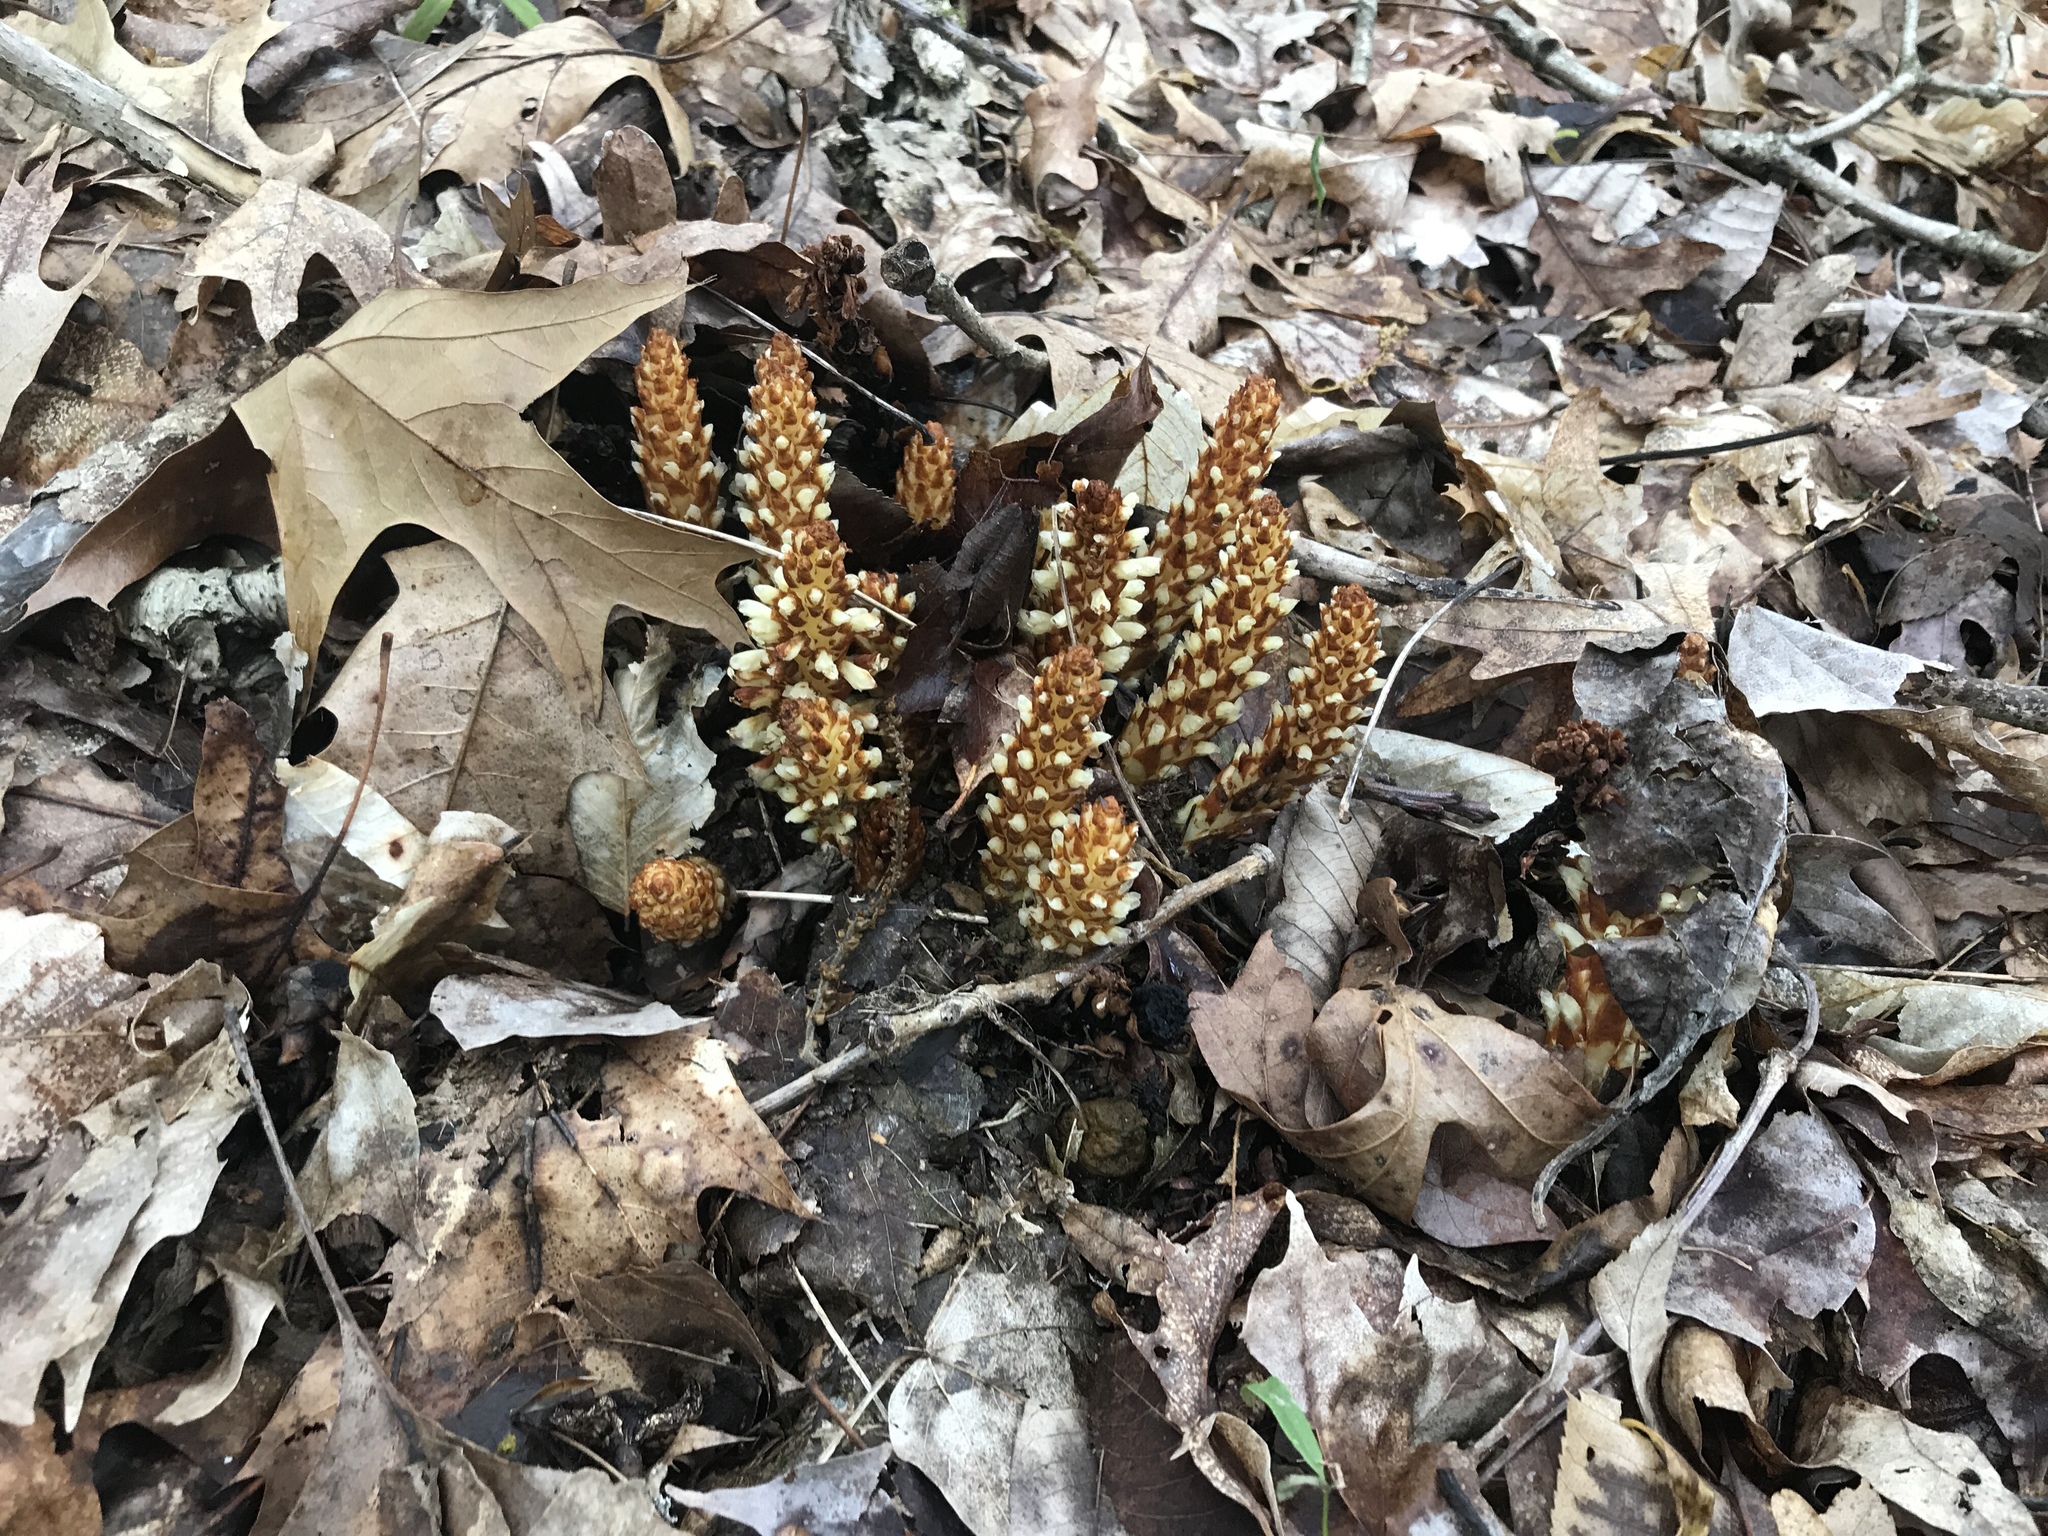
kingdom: Plantae
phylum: Tracheophyta
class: Magnoliopsida
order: Lamiales
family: Orobanchaceae
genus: Conopholis
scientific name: Conopholis americana
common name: American cancer-root
